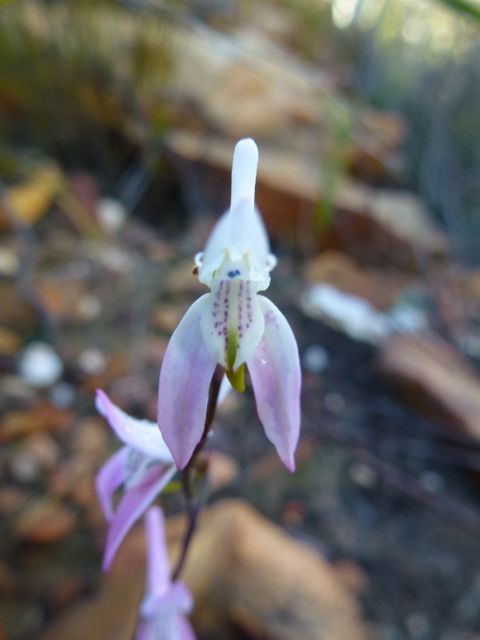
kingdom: Plantae
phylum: Tracheophyta
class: Liliopsida
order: Asparagales
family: Orchidaceae
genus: Disa
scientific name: Disa bifida
